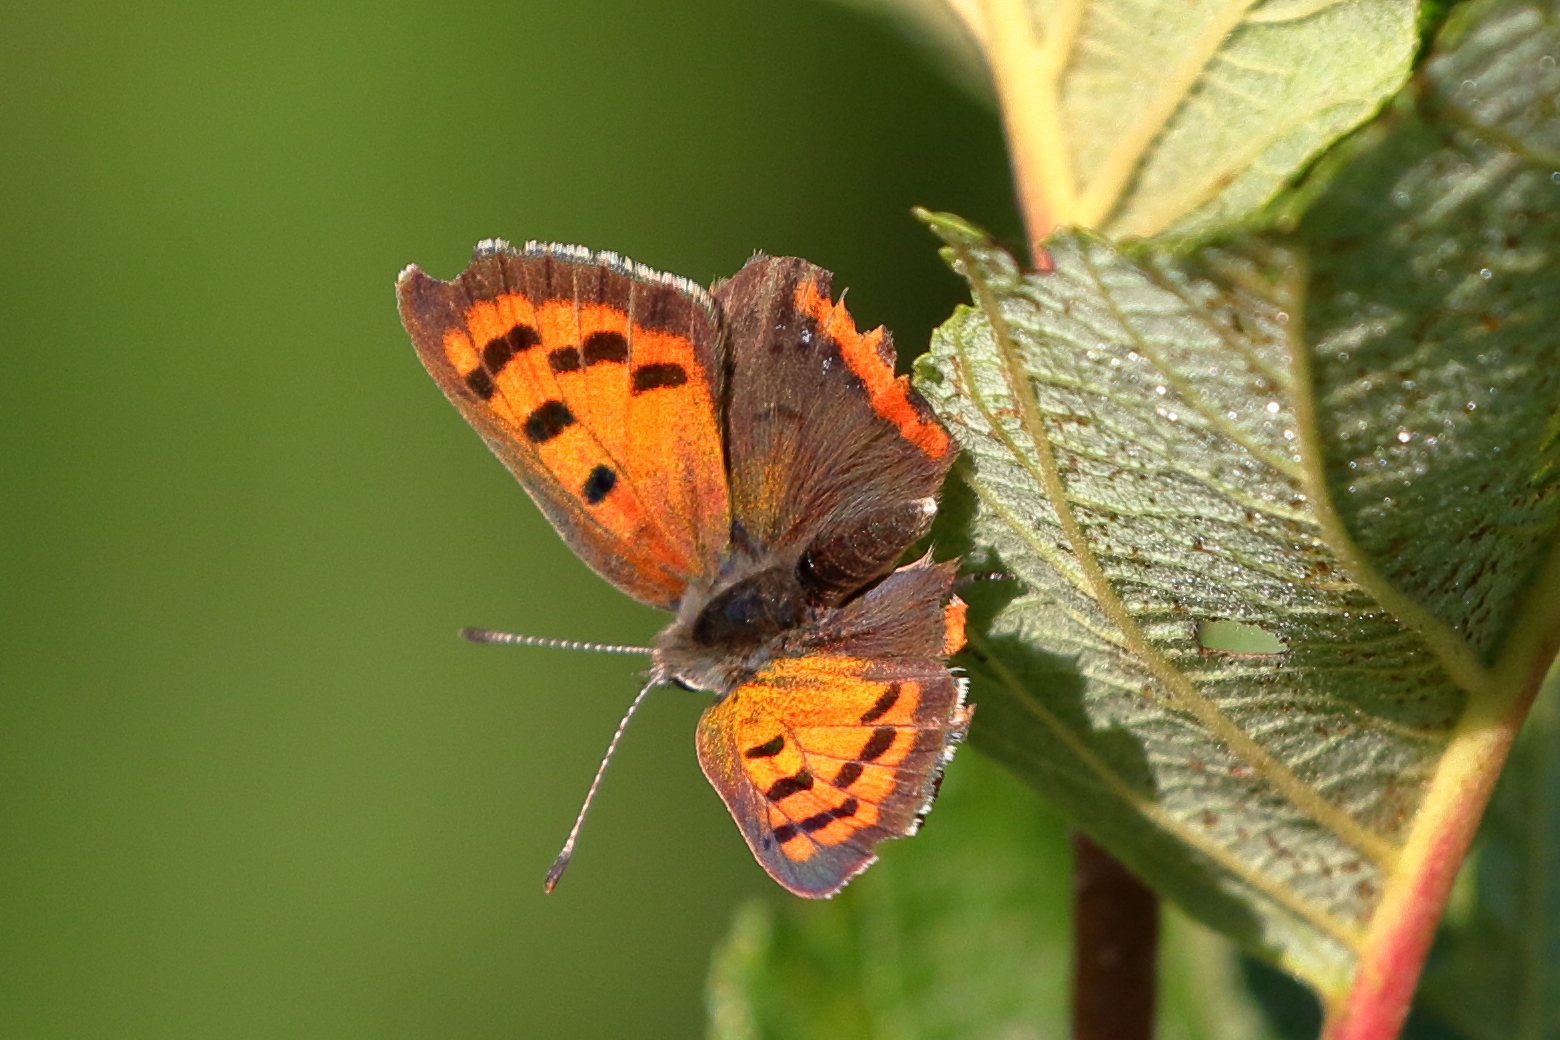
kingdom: Animalia
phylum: Arthropoda
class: Insecta
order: Lepidoptera
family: Lycaenidae
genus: Lycaena
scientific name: Lycaena hypophlaeas
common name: American copper
